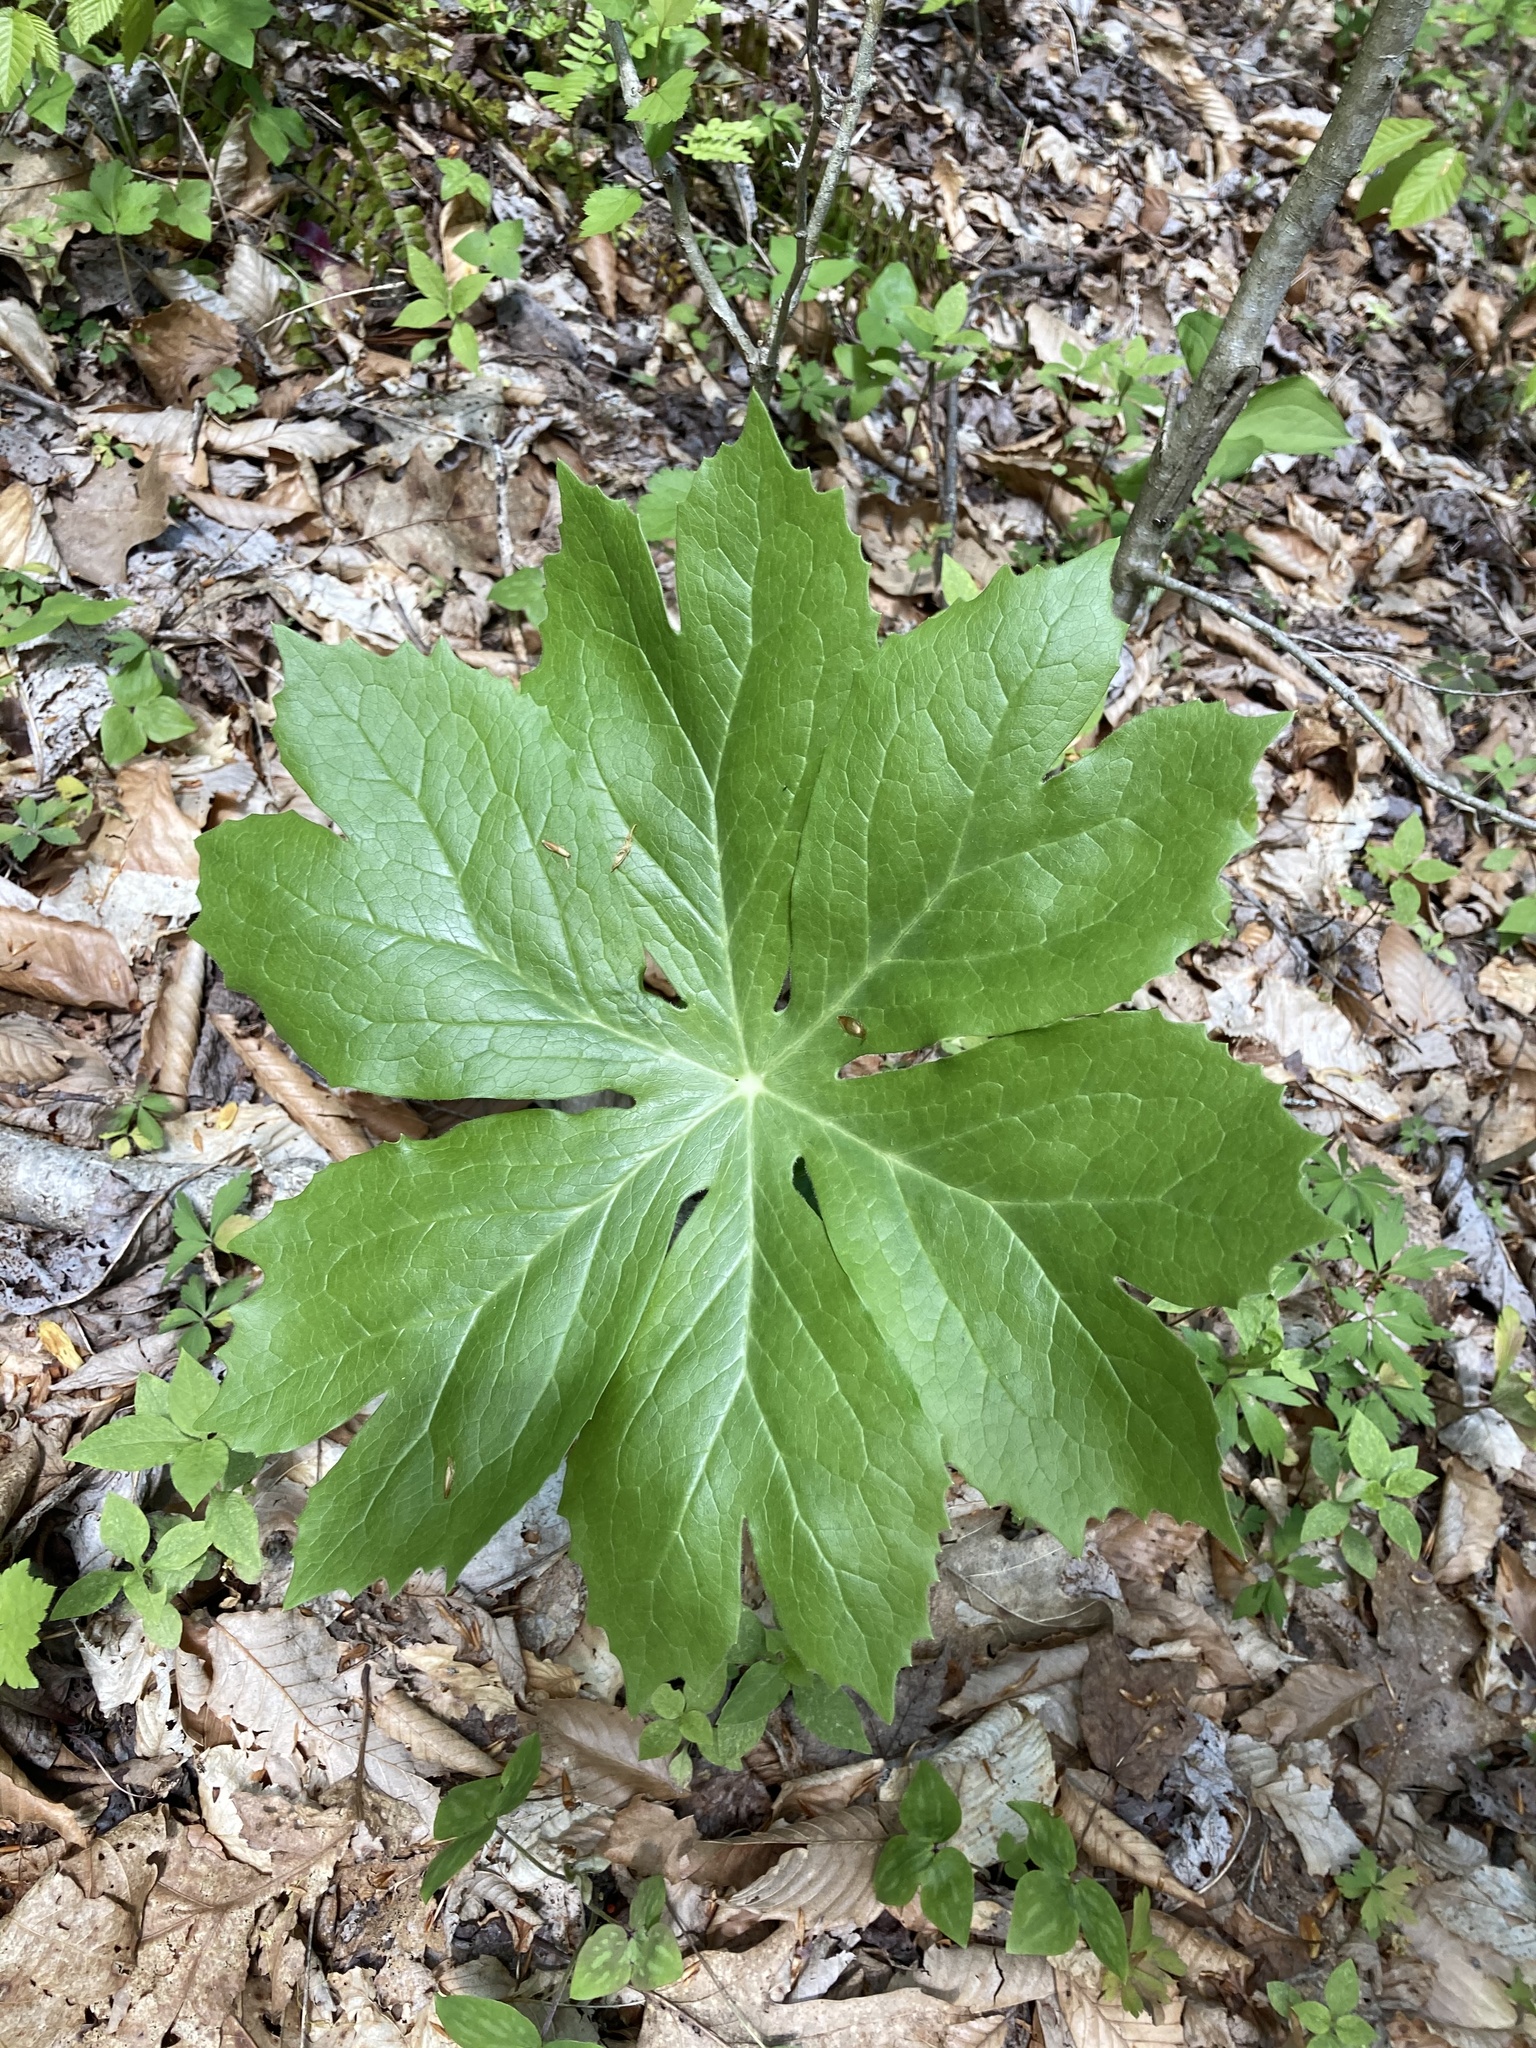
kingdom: Plantae
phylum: Tracheophyta
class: Magnoliopsida
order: Ranunculales
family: Berberidaceae
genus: Podophyllum
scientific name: Podophyllum peltatum
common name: Wild mandrake
